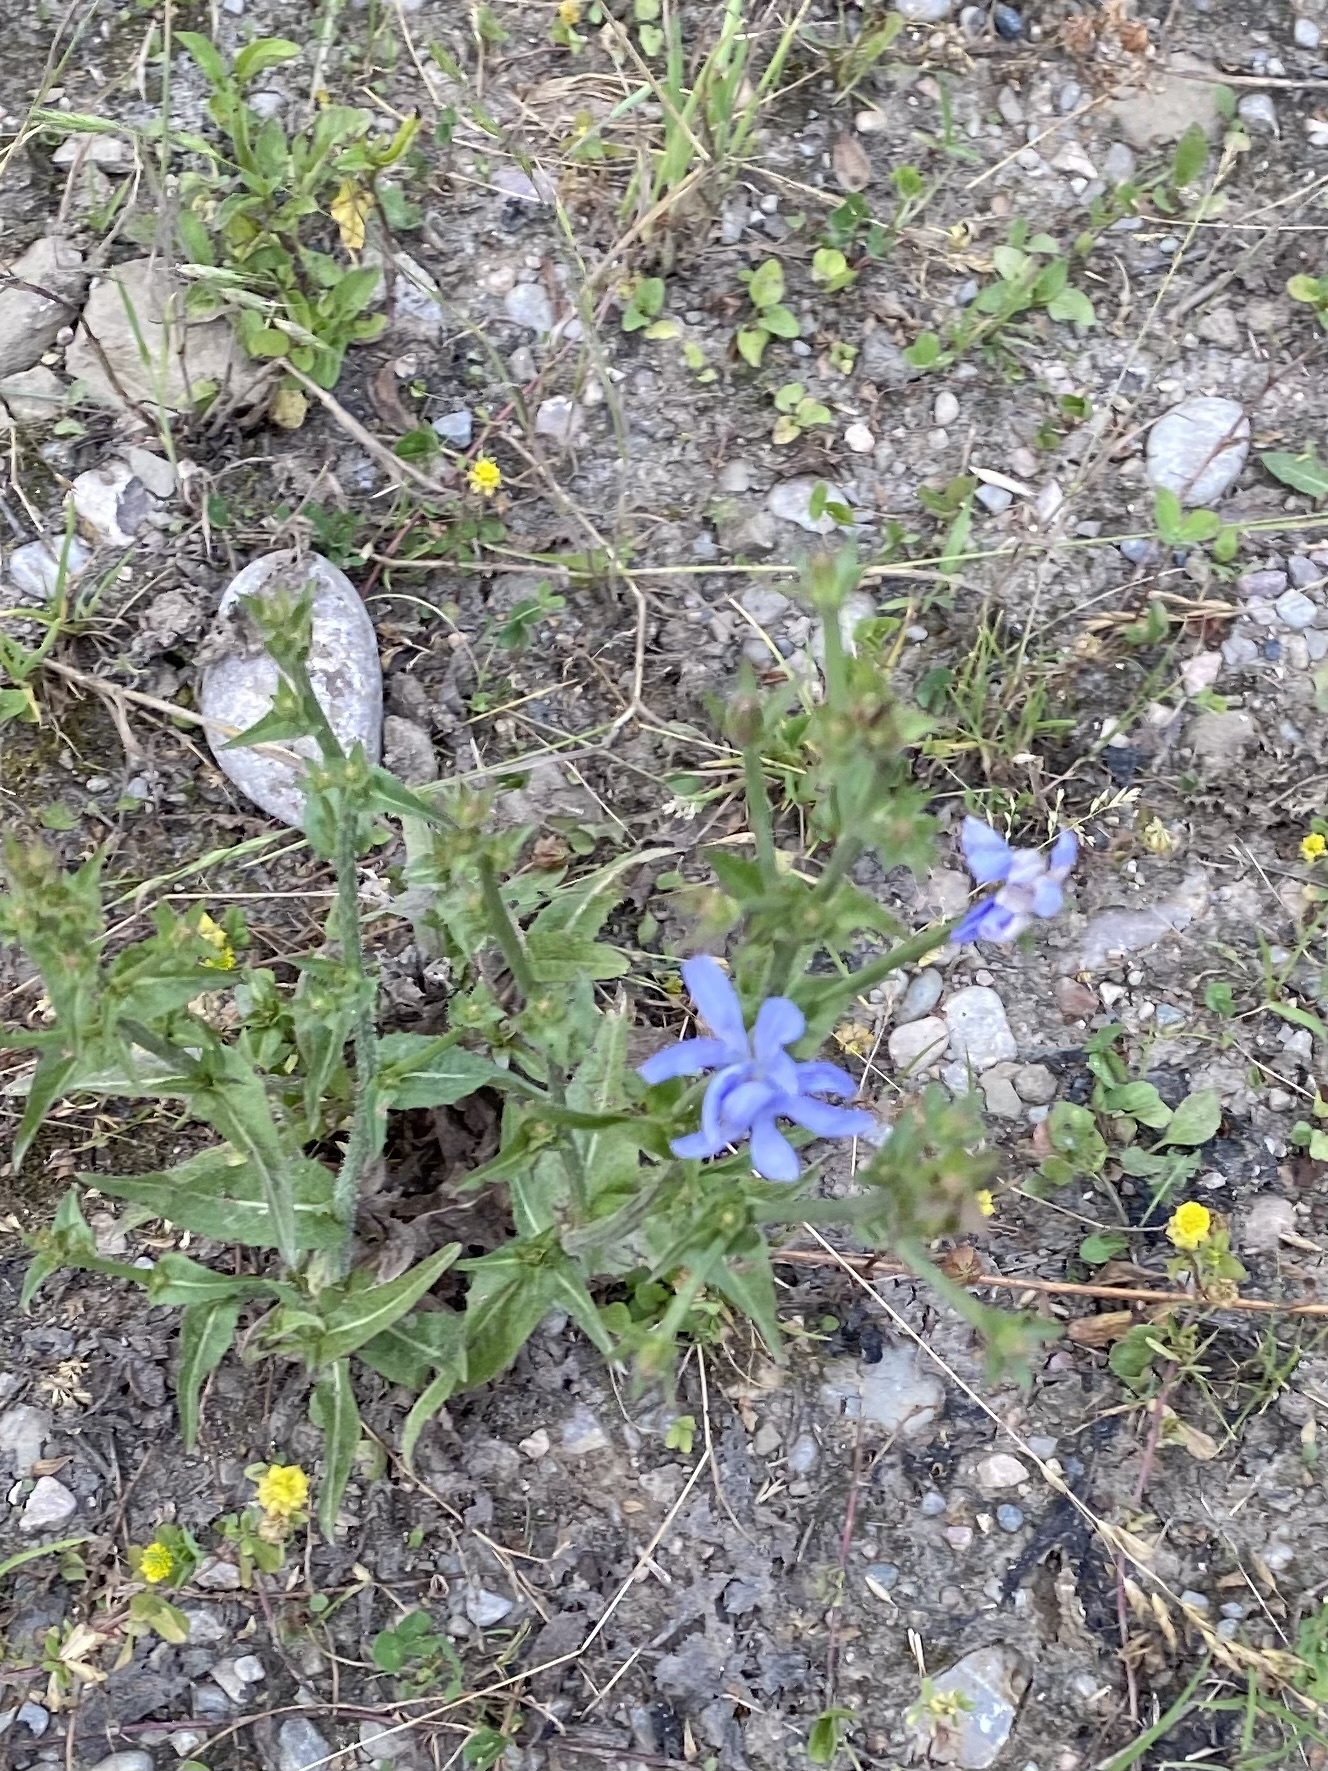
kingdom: Plantae
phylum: Tracheophyta
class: Magnoliopsida
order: Asterales
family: Asteraceae
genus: Cichorium
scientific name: Cichorium intybus
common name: Chicory
